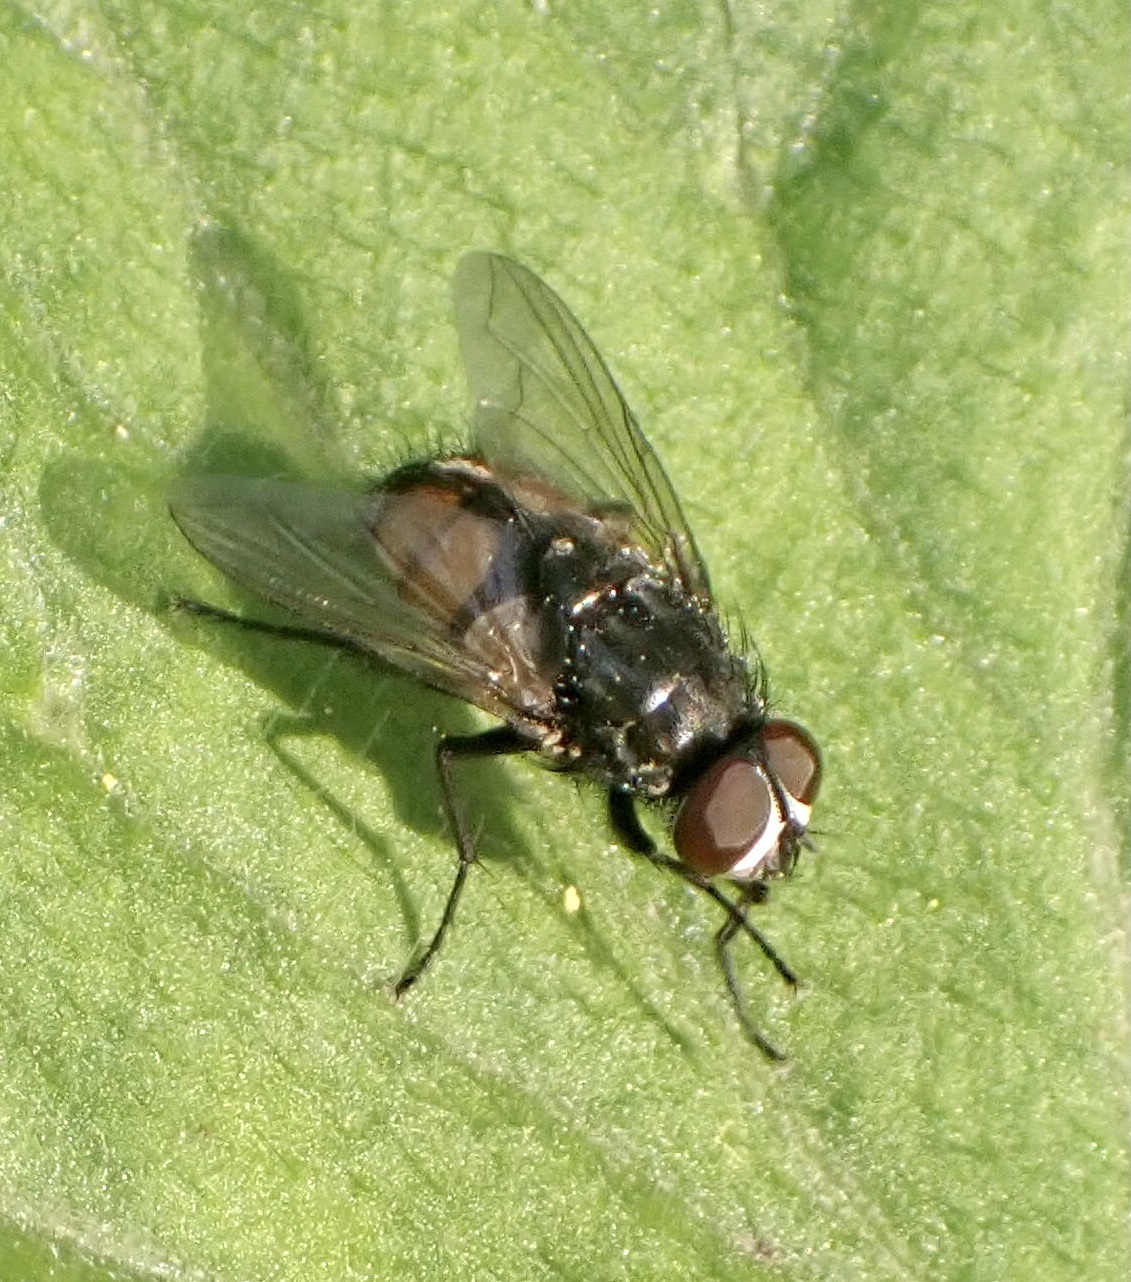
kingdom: Animalia
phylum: Arthropoda
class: Insecta
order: Diptera
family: Muscidae
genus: Musca
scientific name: Musca autumnalis
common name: Face fly
